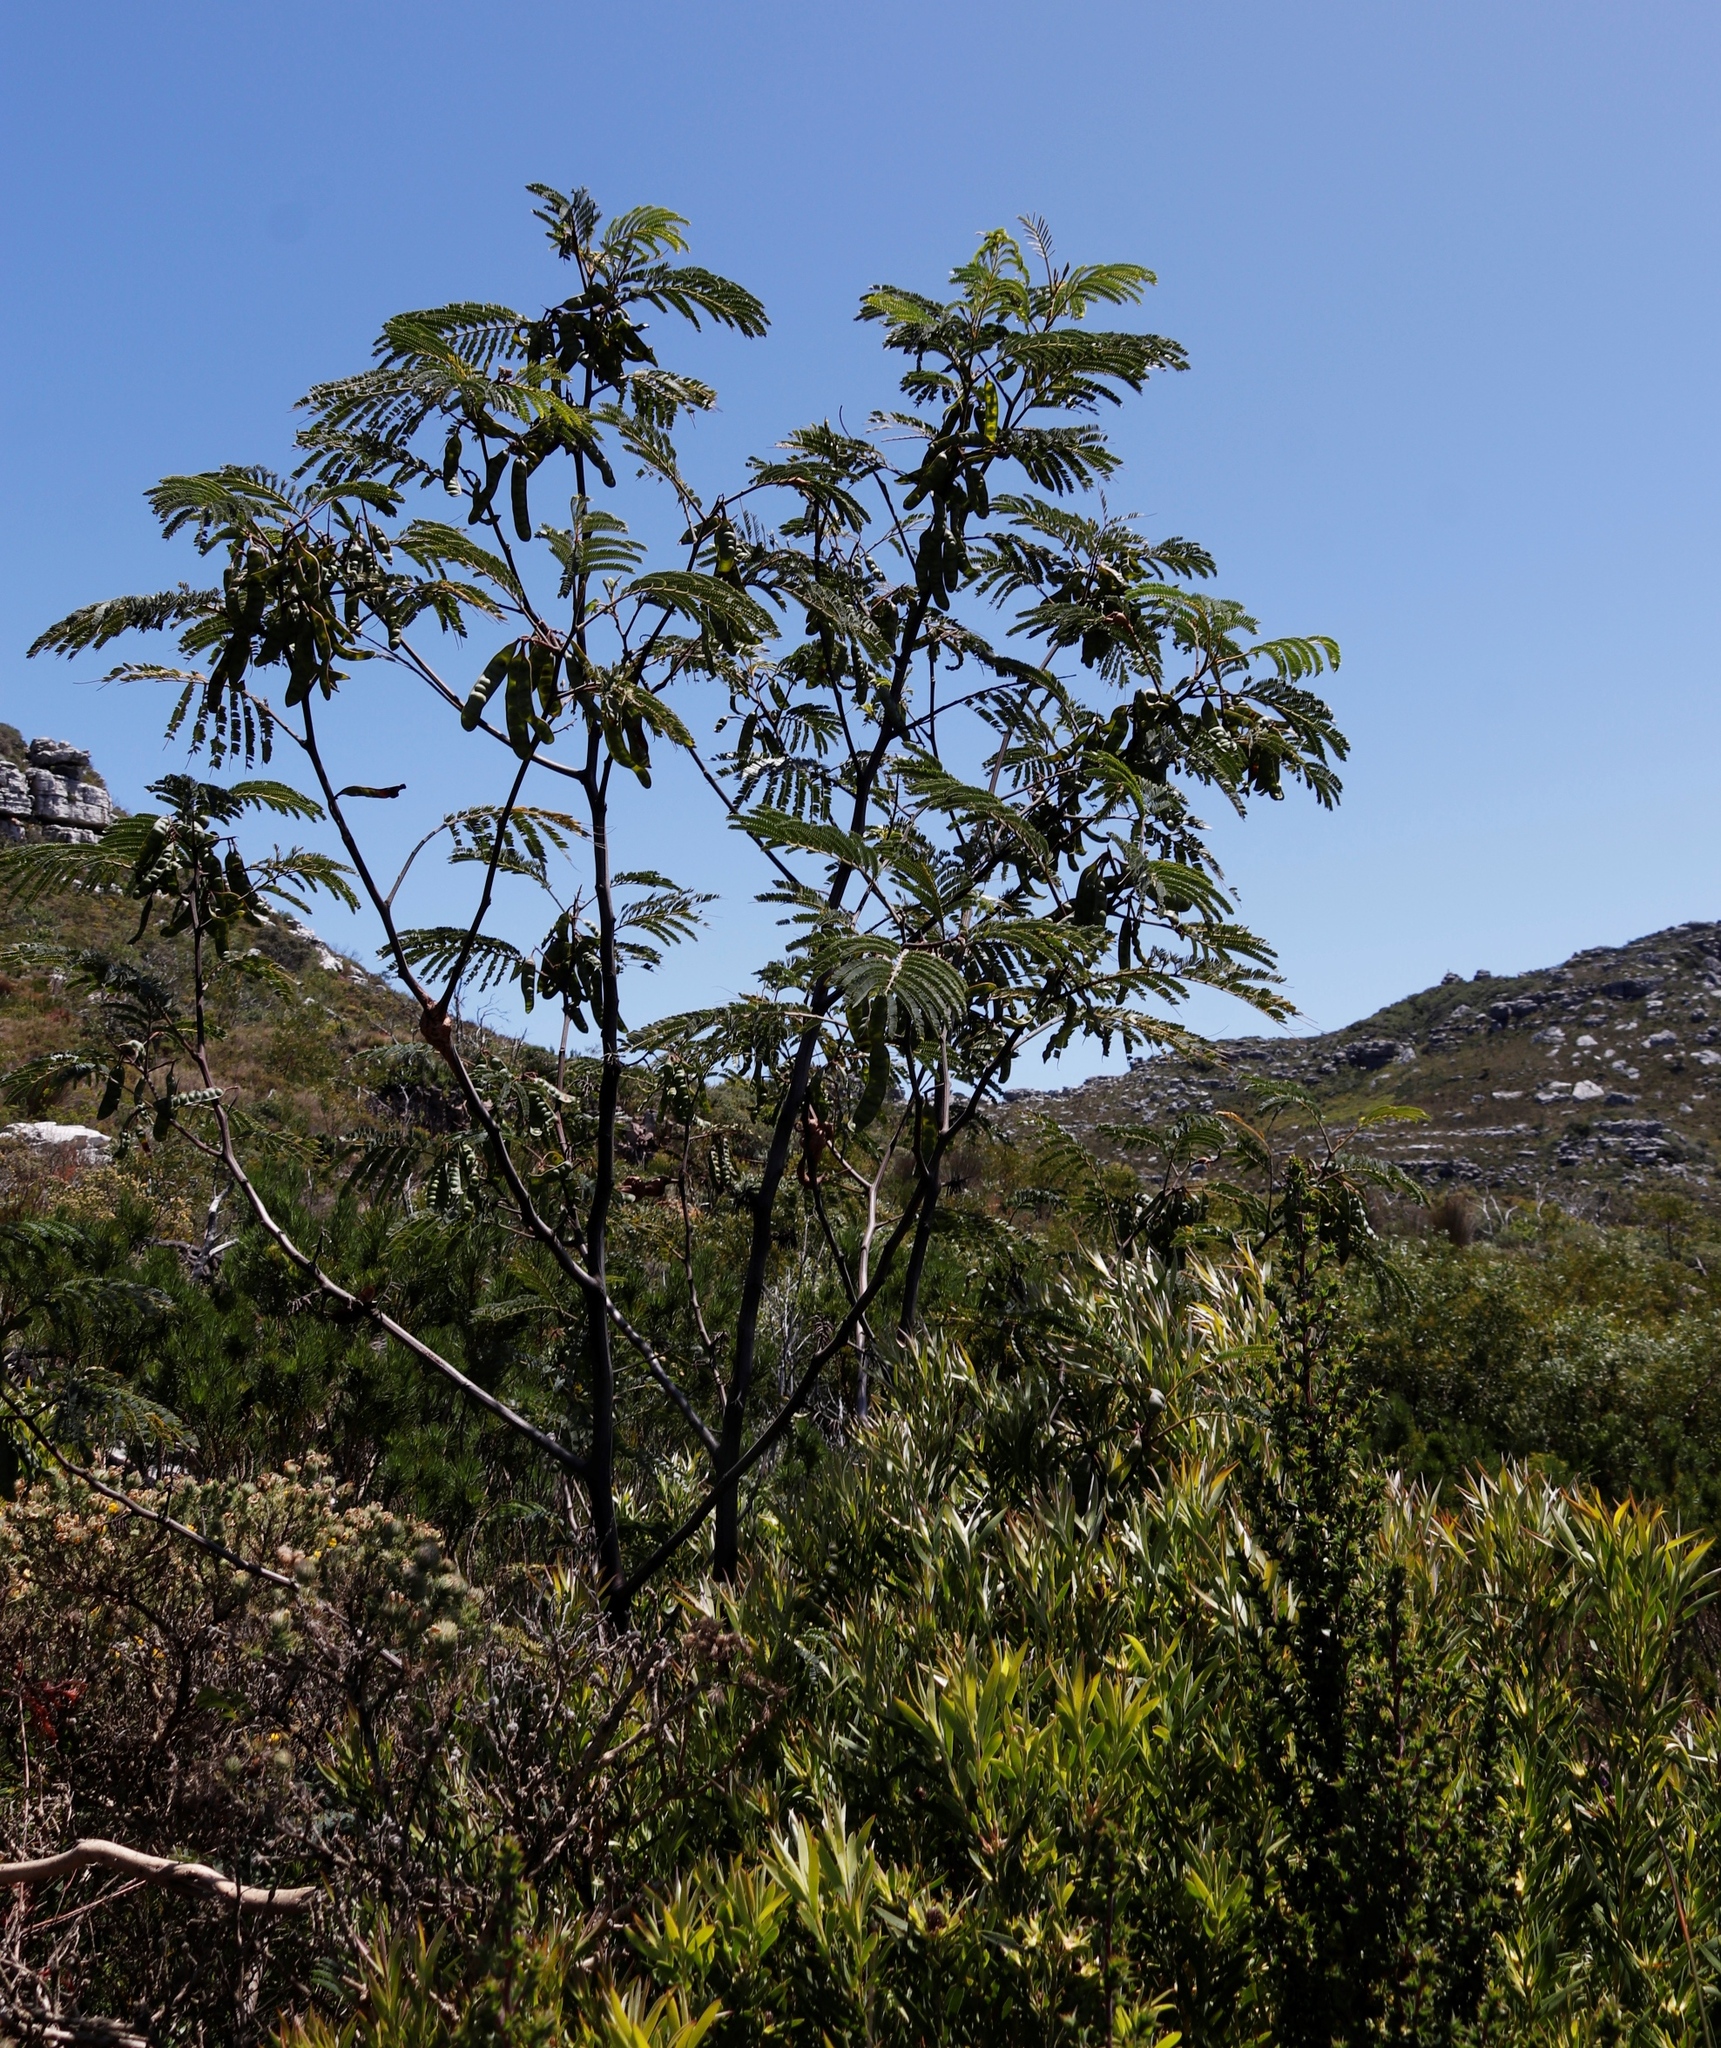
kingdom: Plantae
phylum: Tracheophyta
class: Magnoliopsida
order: Fabales
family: Fabaceae
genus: Paraserianthes
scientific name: Paraserianthes lophantha
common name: Plume albizia
